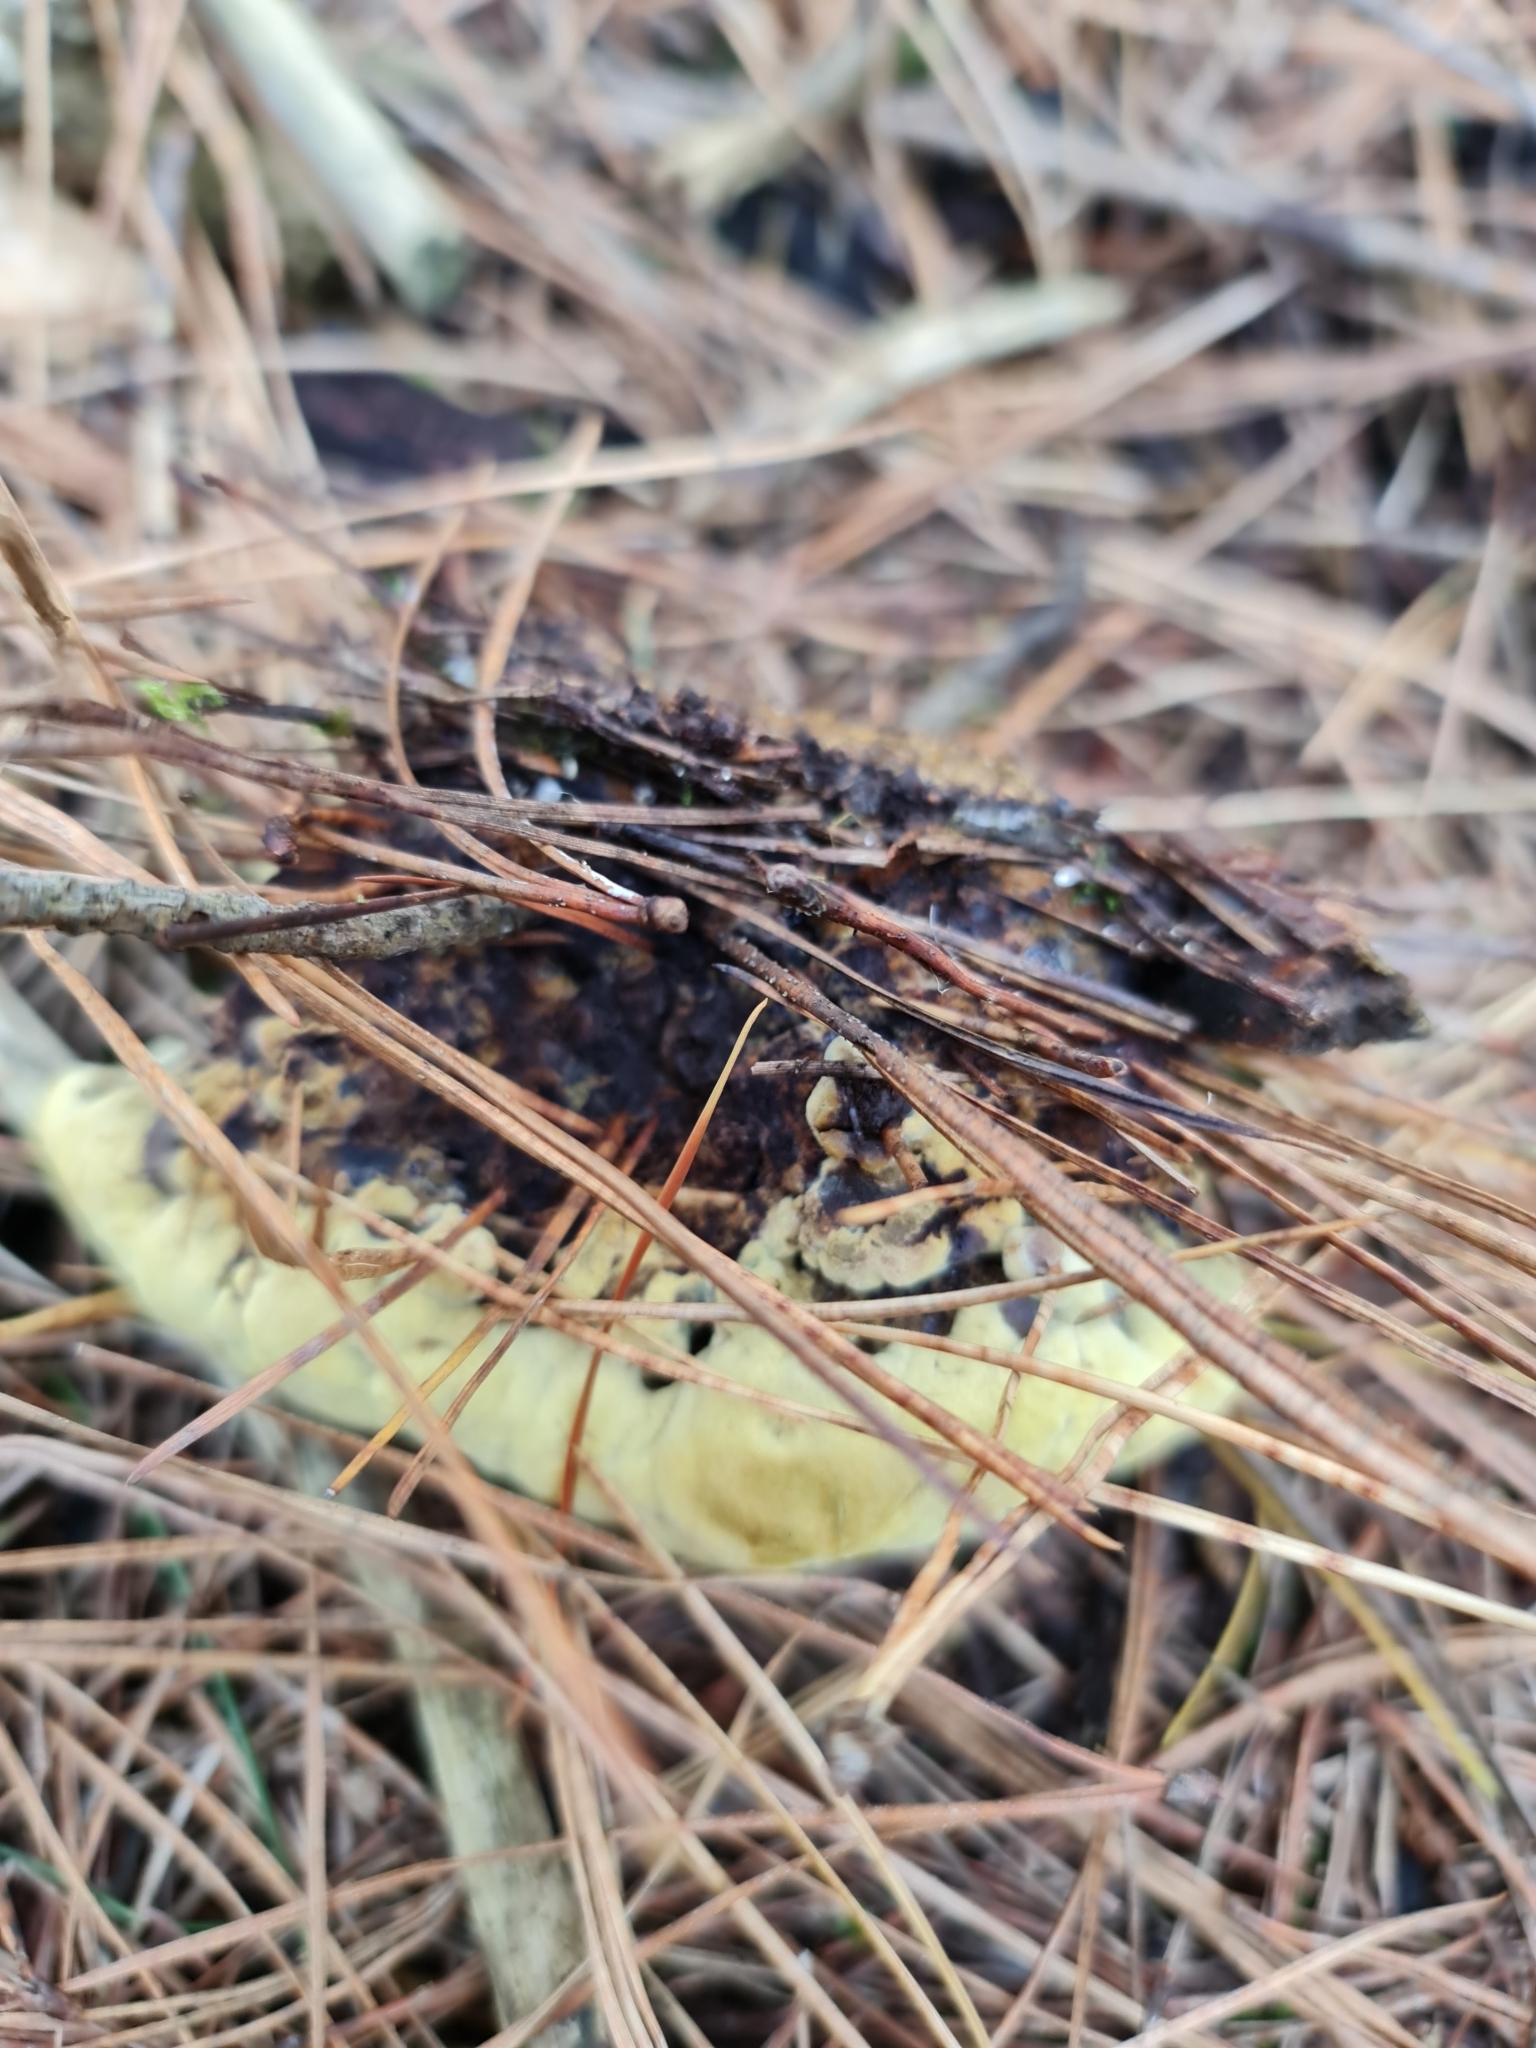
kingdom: Fungi
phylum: Basidiomycota
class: Agaricomycetes
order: Polyporales
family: Laetiporaceae
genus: Phaeolus
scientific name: Phaeolus schweinitzii
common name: Dyer's mazegill
